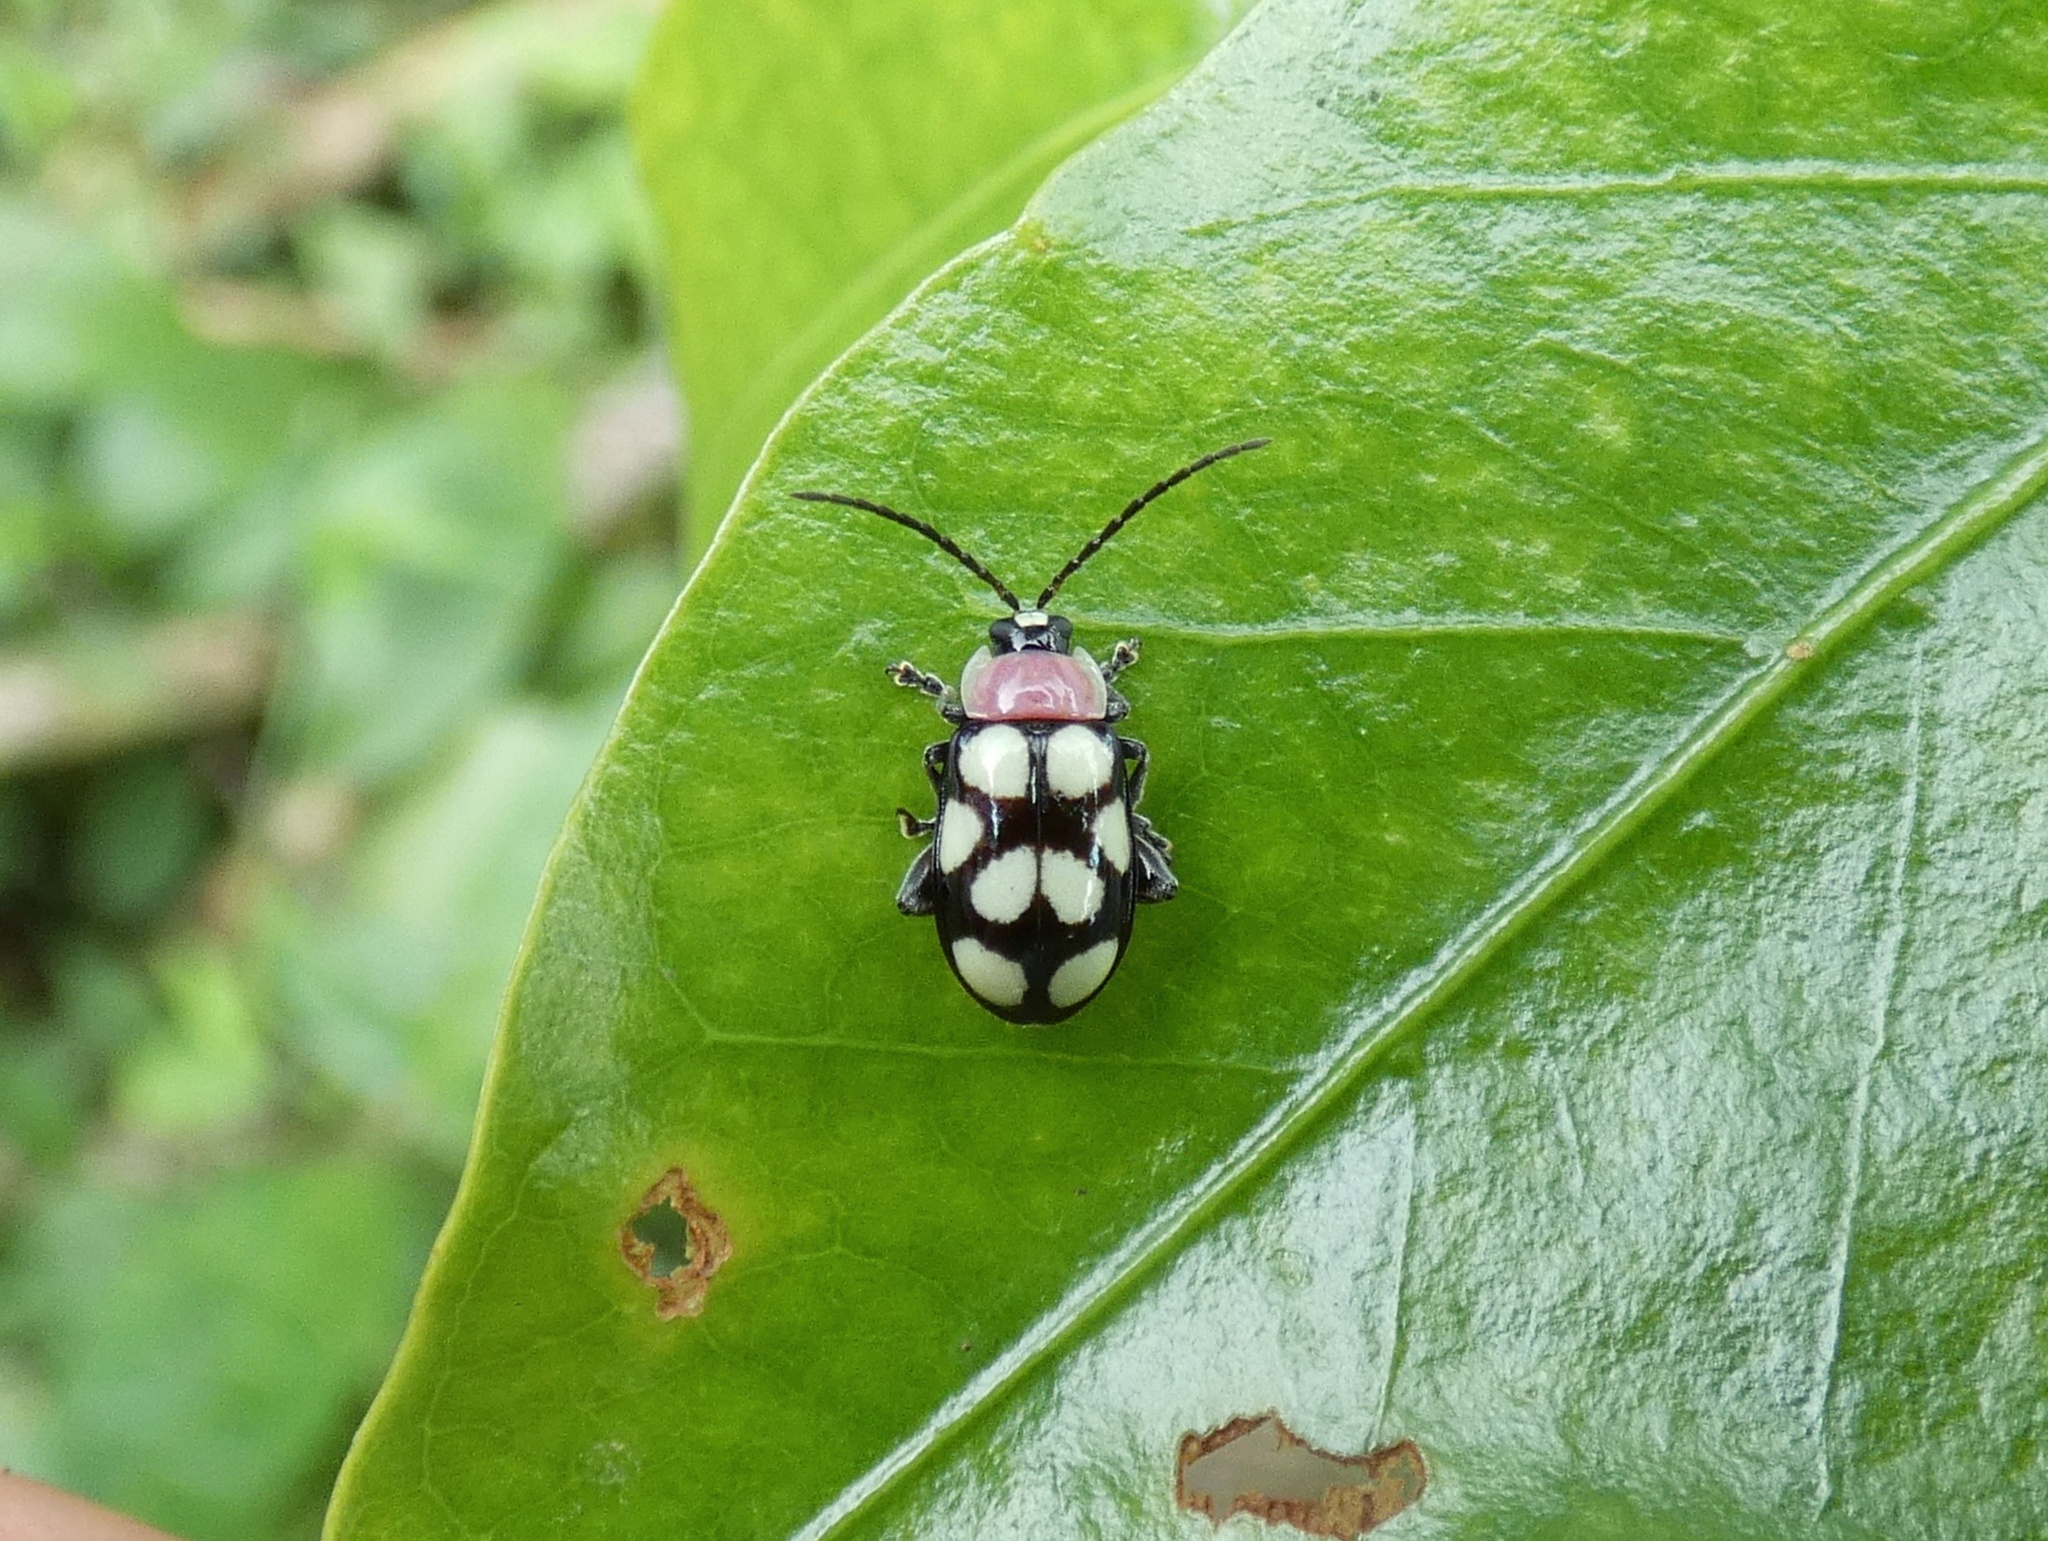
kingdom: Animalia
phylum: Arthropoda
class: Insecta
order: Coleoptera
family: Chrysomelidae
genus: Omophoita
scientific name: Omophoita aequinoctialis
